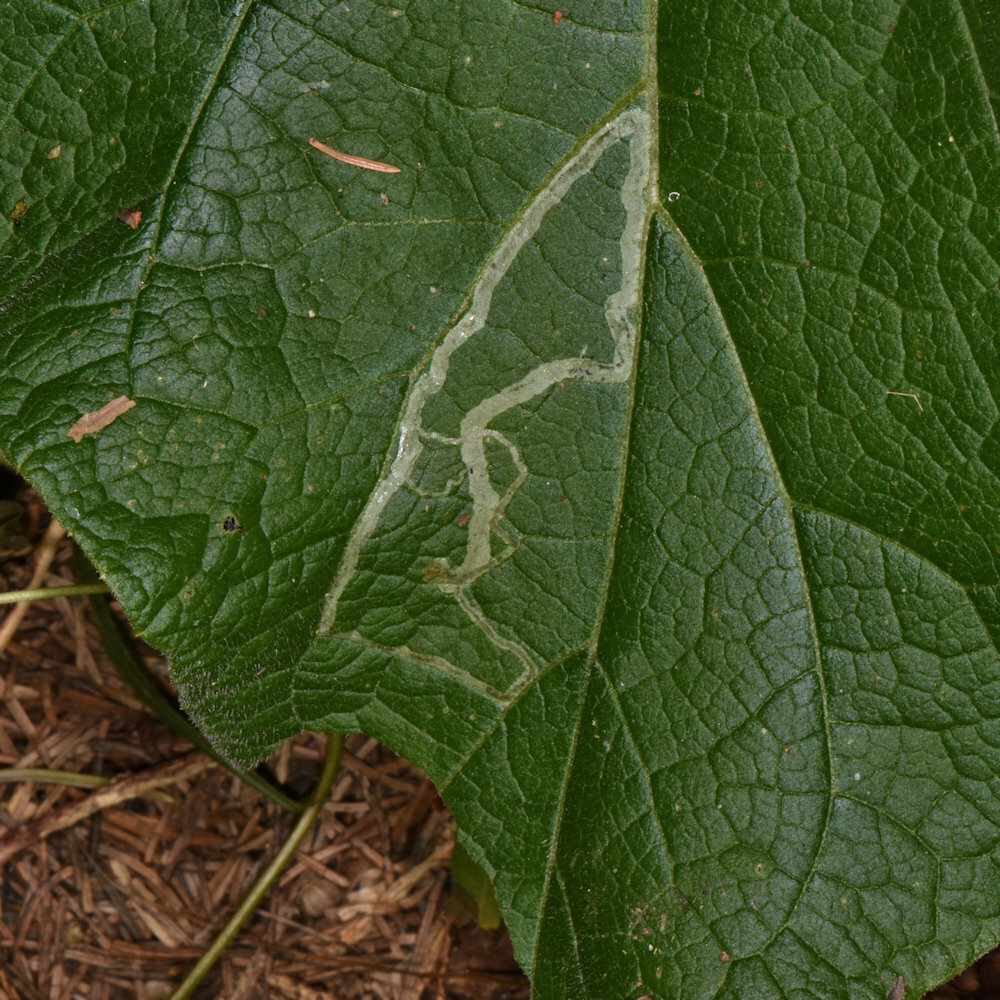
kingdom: Animalia
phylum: Arthropoda
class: Insecta
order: Diptera
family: Agromyzidae
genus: Liriomyza
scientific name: Liriomyza arctii
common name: Burdock leafminer
